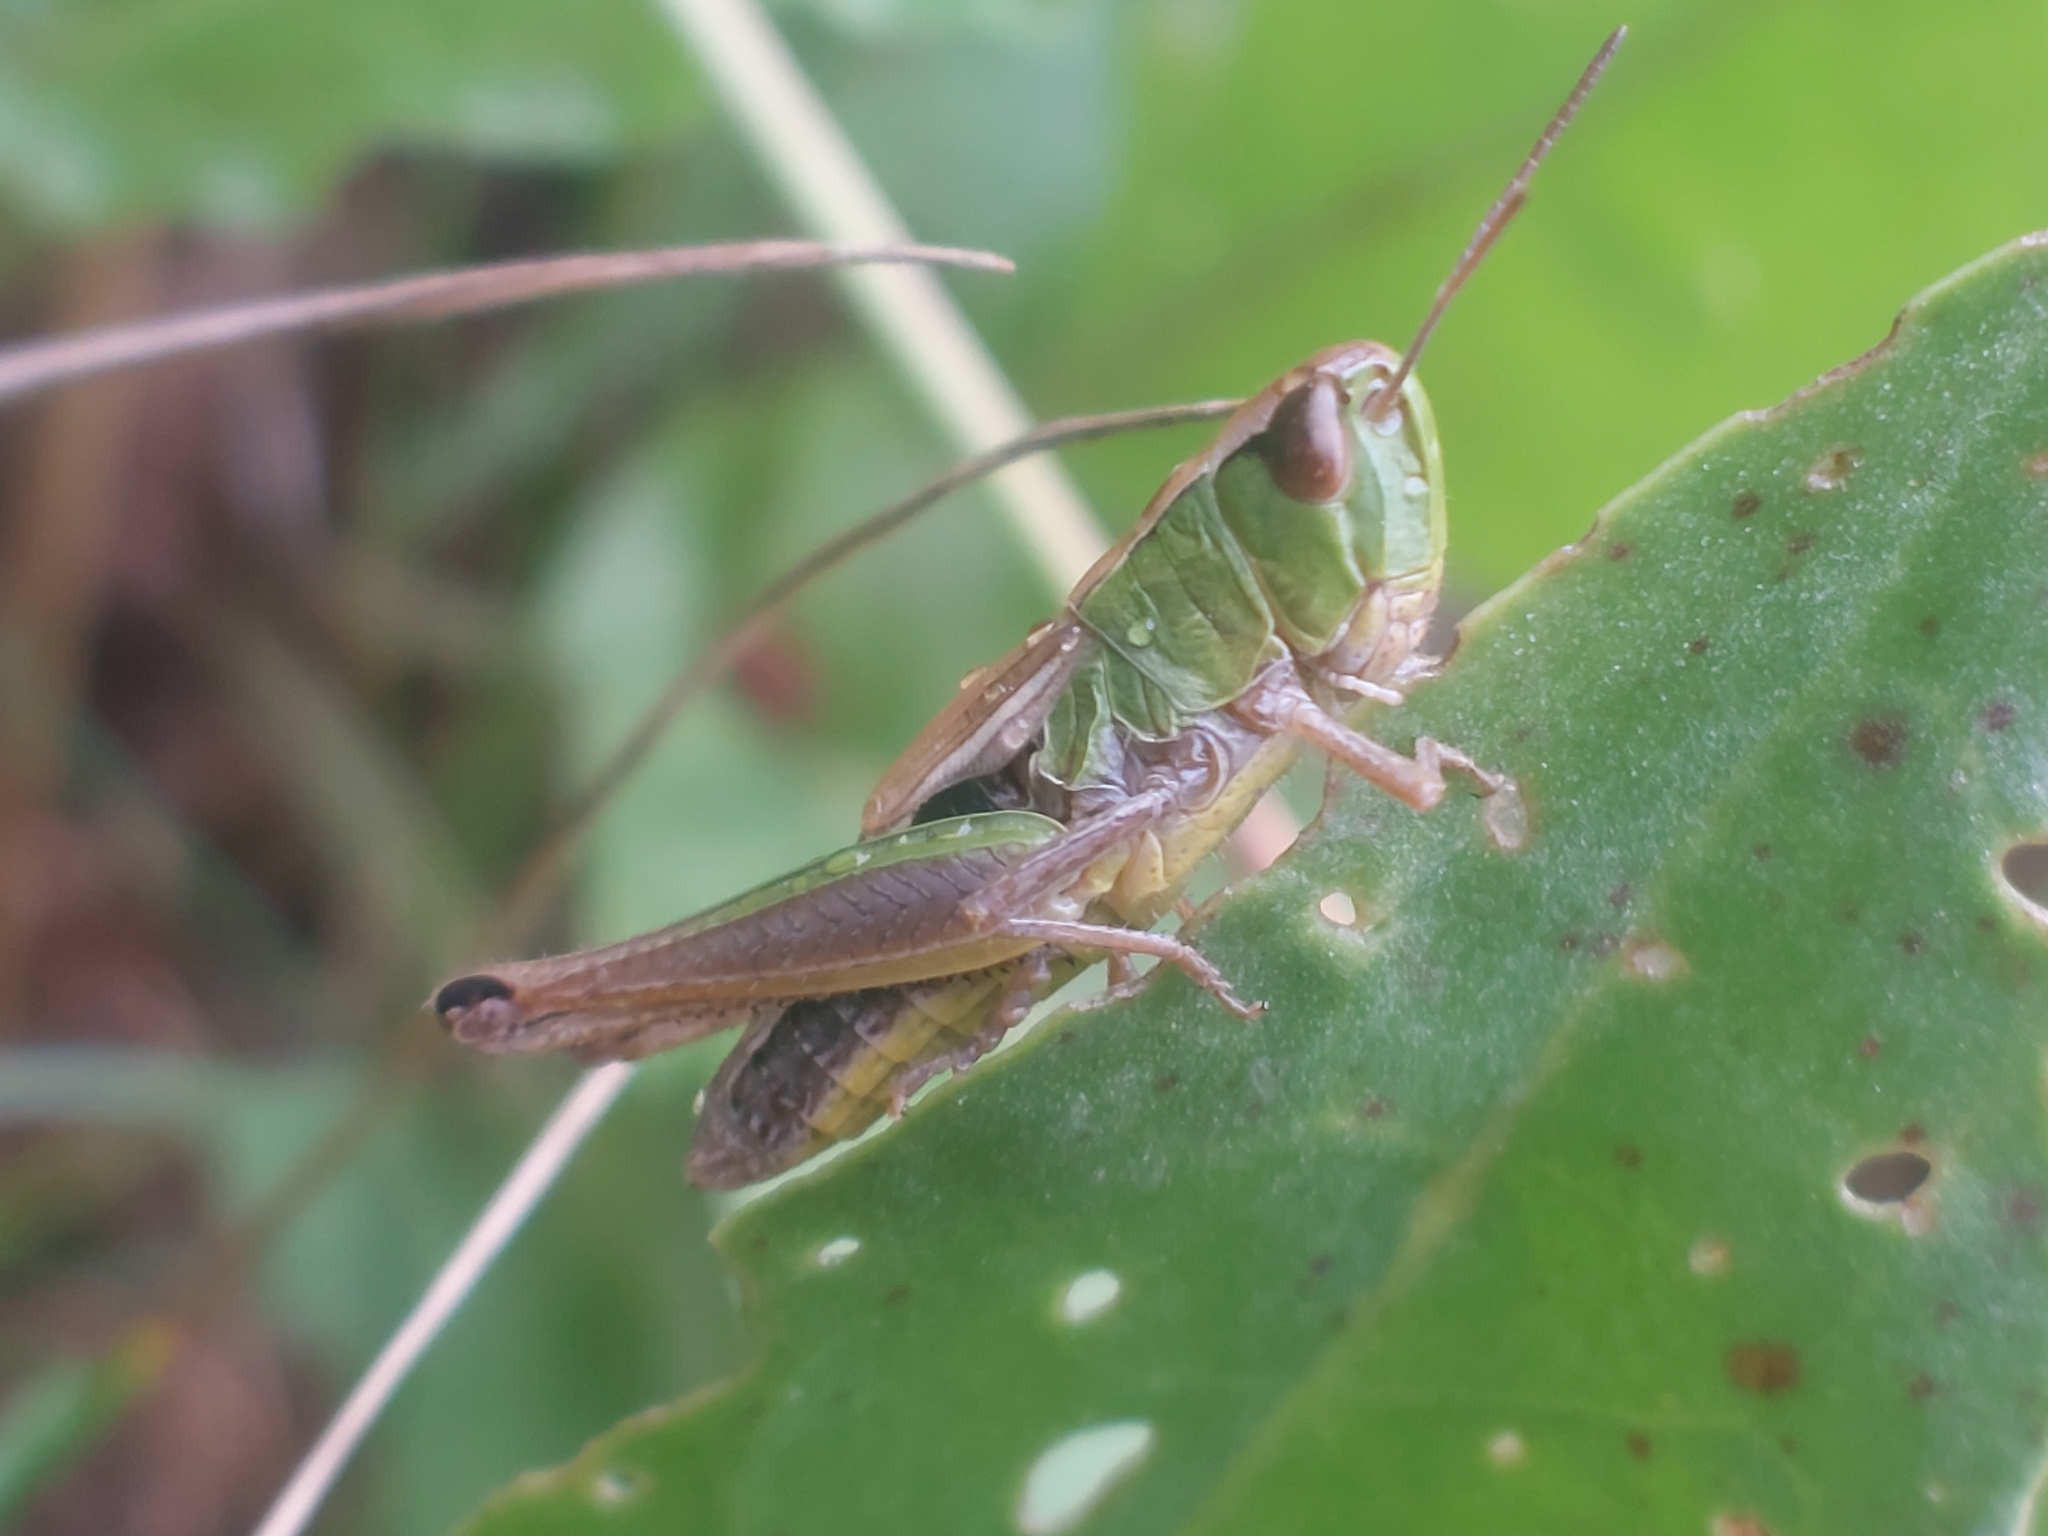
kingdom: Animalia
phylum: Arthropoda
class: Insecta
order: Orthoptera
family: Acrididae
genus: Pseudochorthippus
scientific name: Pseudochorthippus parallelus
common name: Meadow grasshopper
